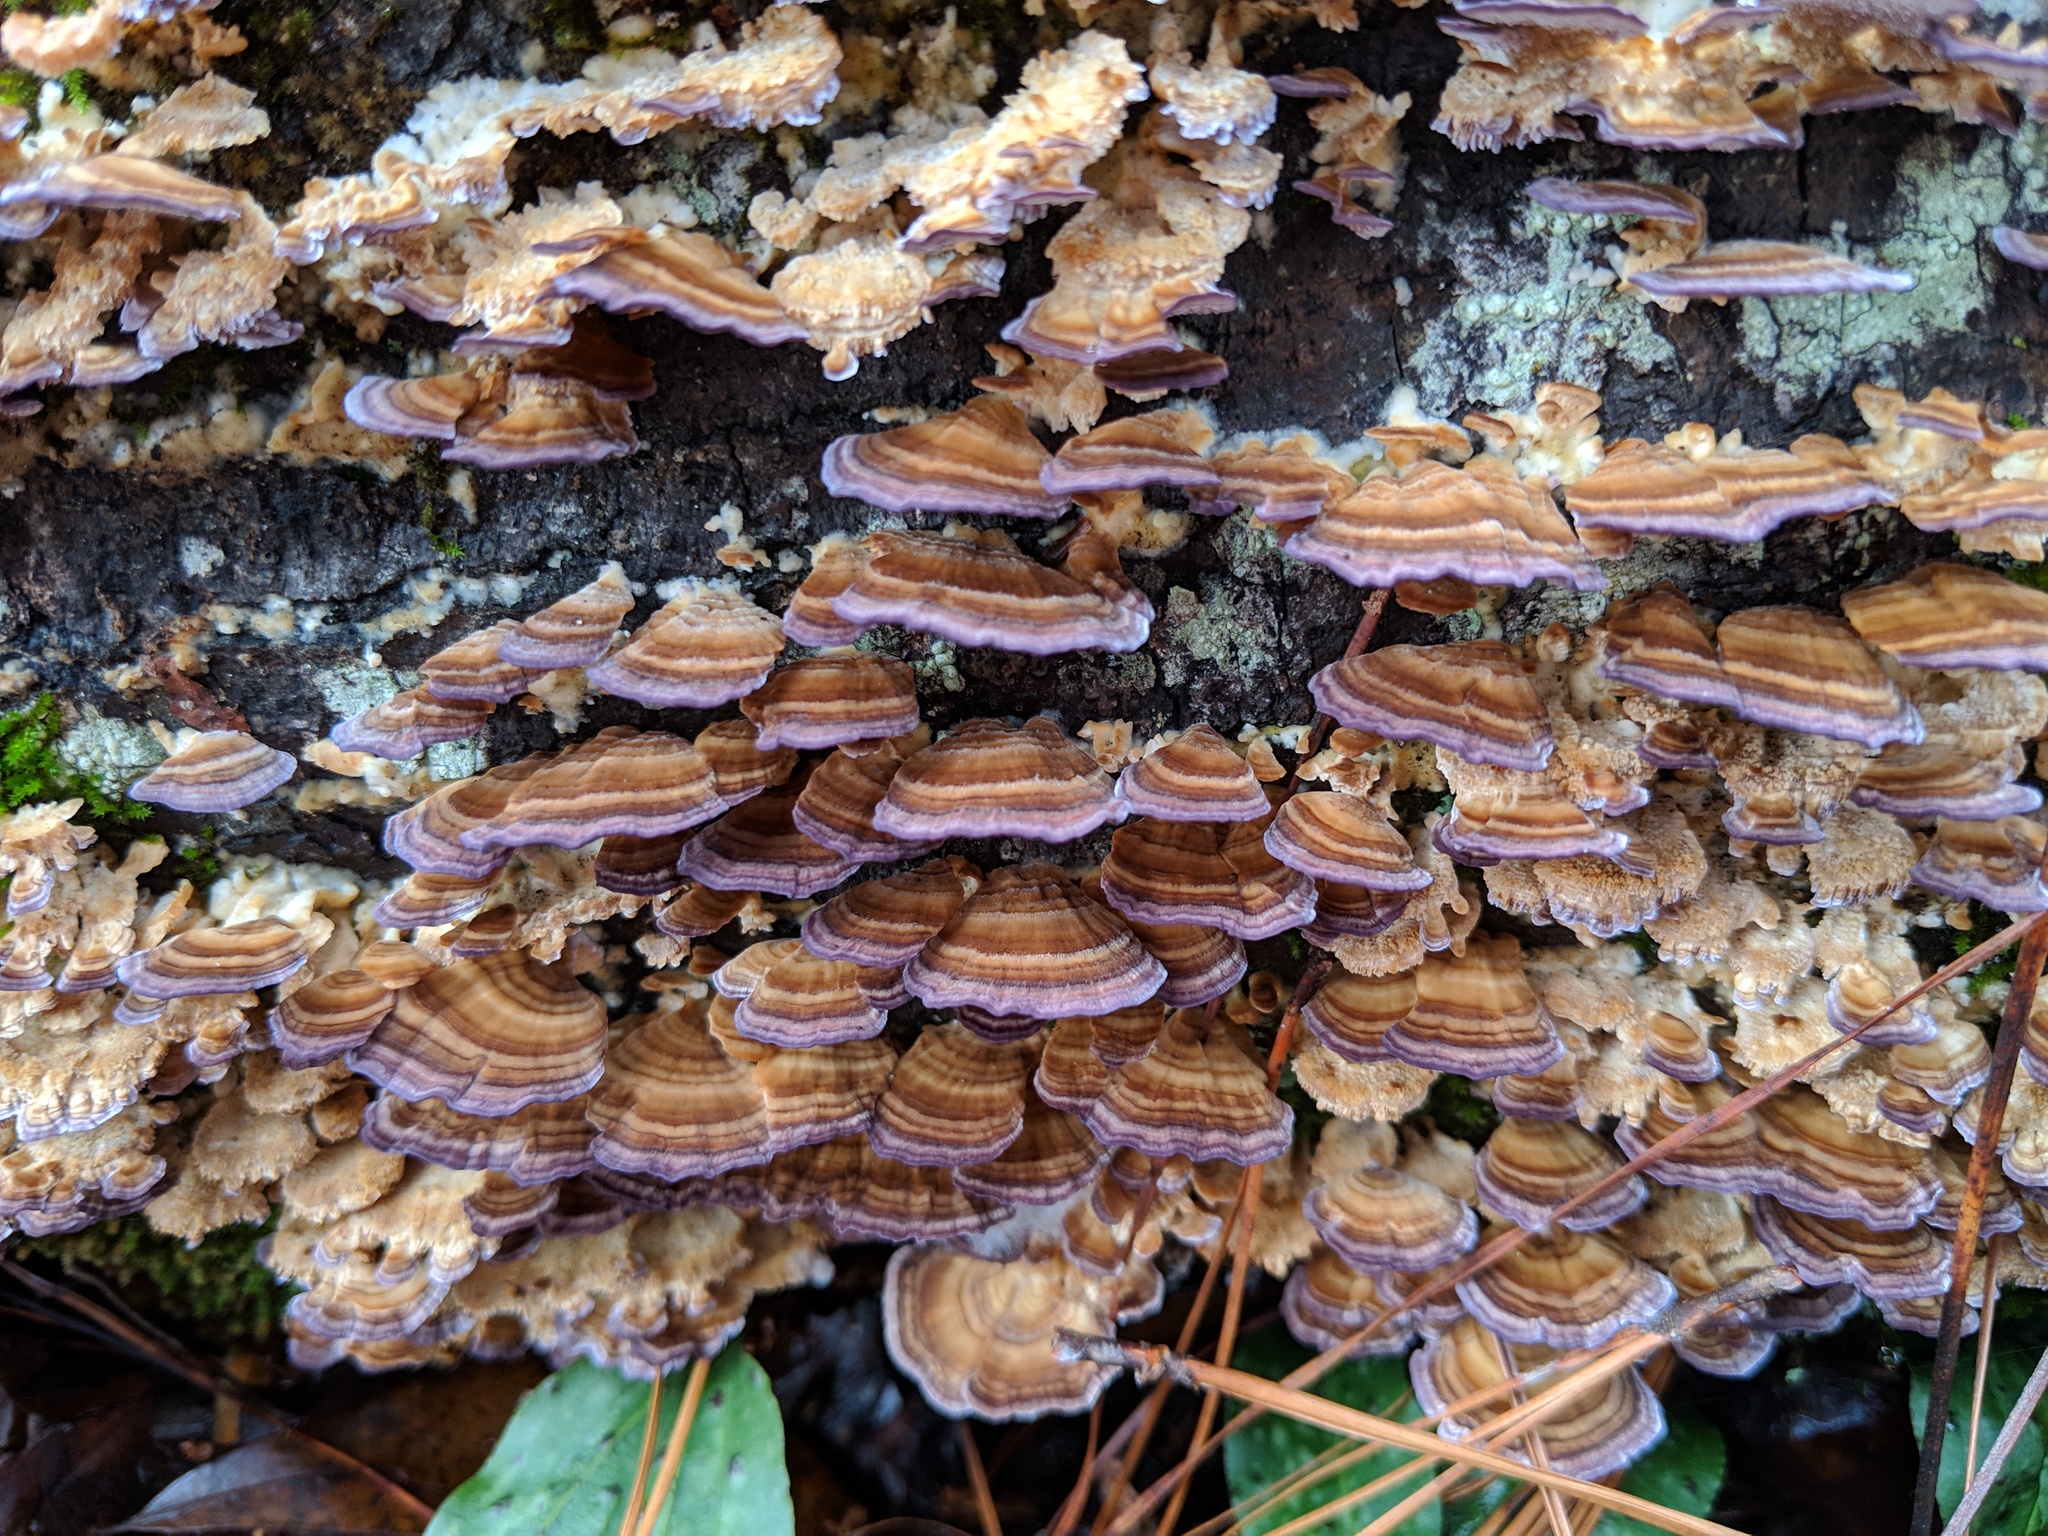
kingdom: Fungi
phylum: Basidiomycota
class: Agaricomycetes
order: Hymenochaetales
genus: Trichaptum
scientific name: Trichaptum biforme
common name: Violet-toothed polypore
